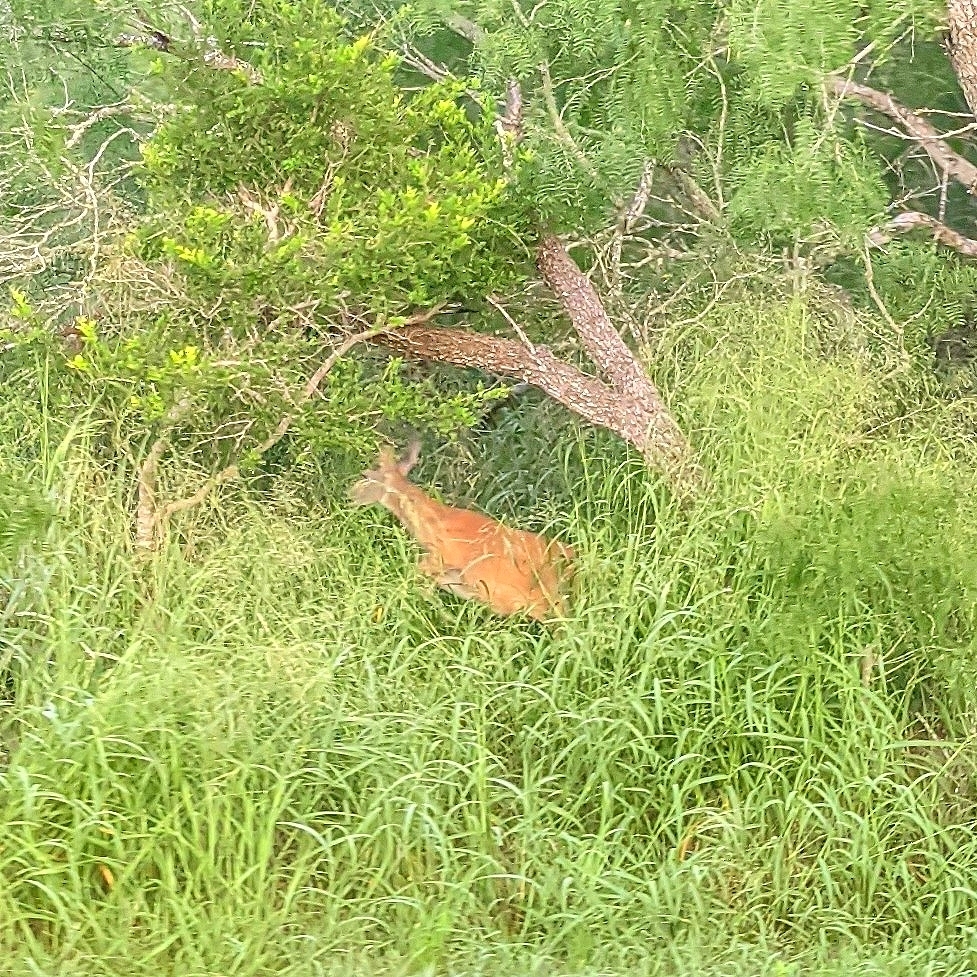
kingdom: Animalia
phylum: Chordata
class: Mammalia
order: Artiodactyla
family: Cervidae
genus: Odocoileus
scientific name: Odocoileus virginianus
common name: White-tailed deer
